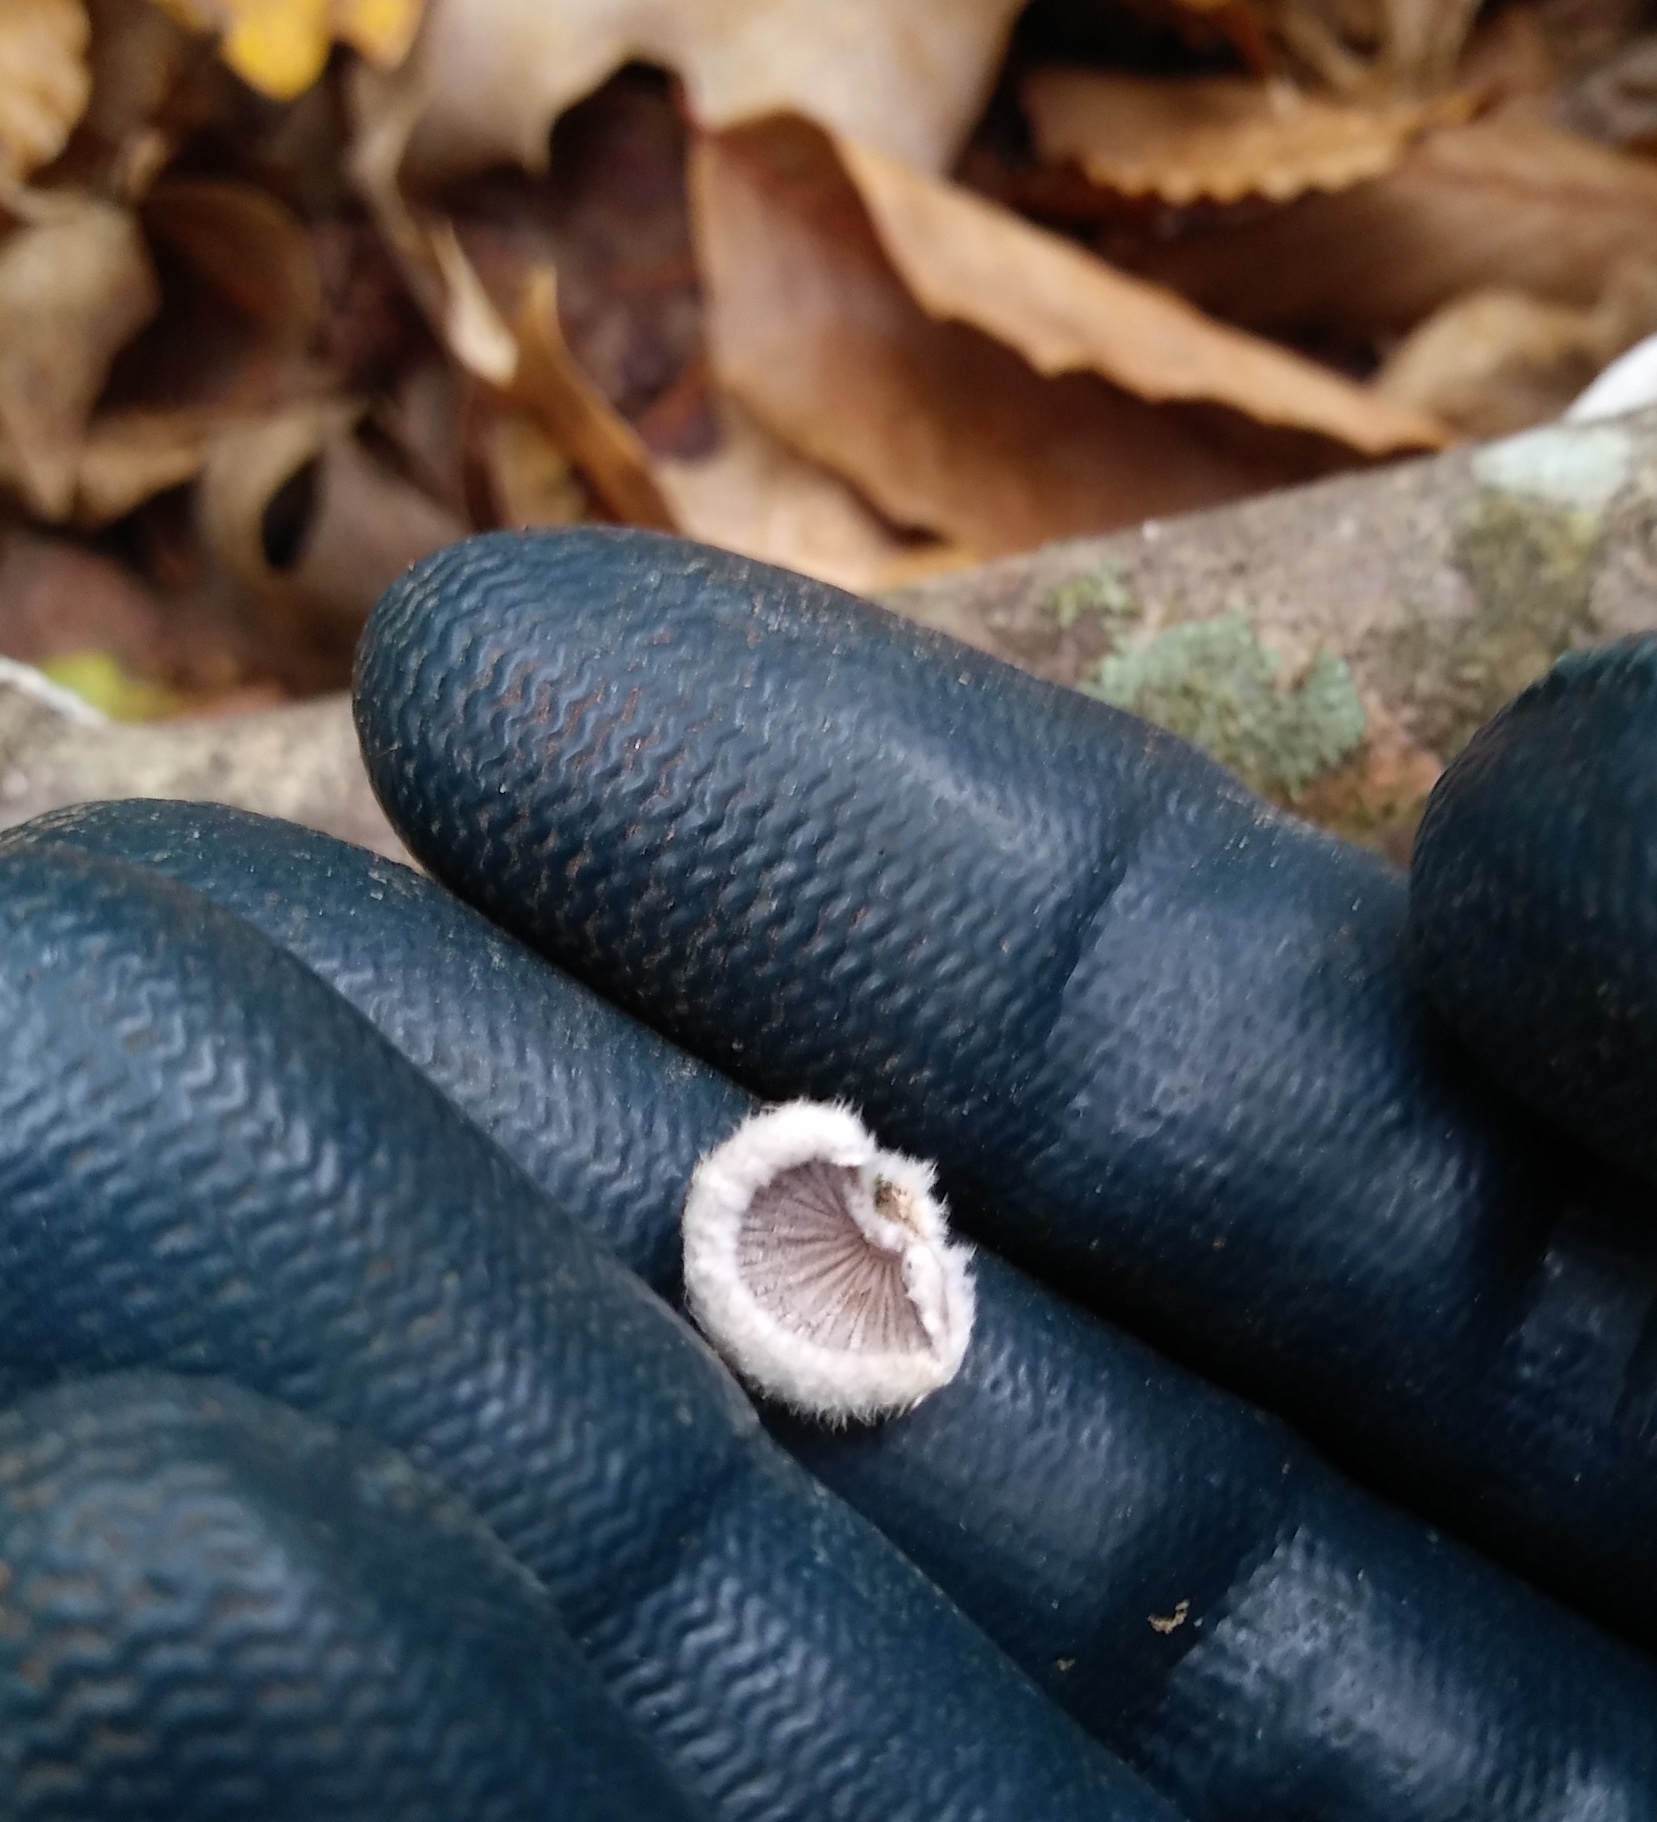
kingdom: Fungi
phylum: Basidiomycota
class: Agaricomycetes
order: Agaricales
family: Schizophyllaceae
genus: Schizophyllum
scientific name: Schizophyllum commune
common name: Common porecrust
